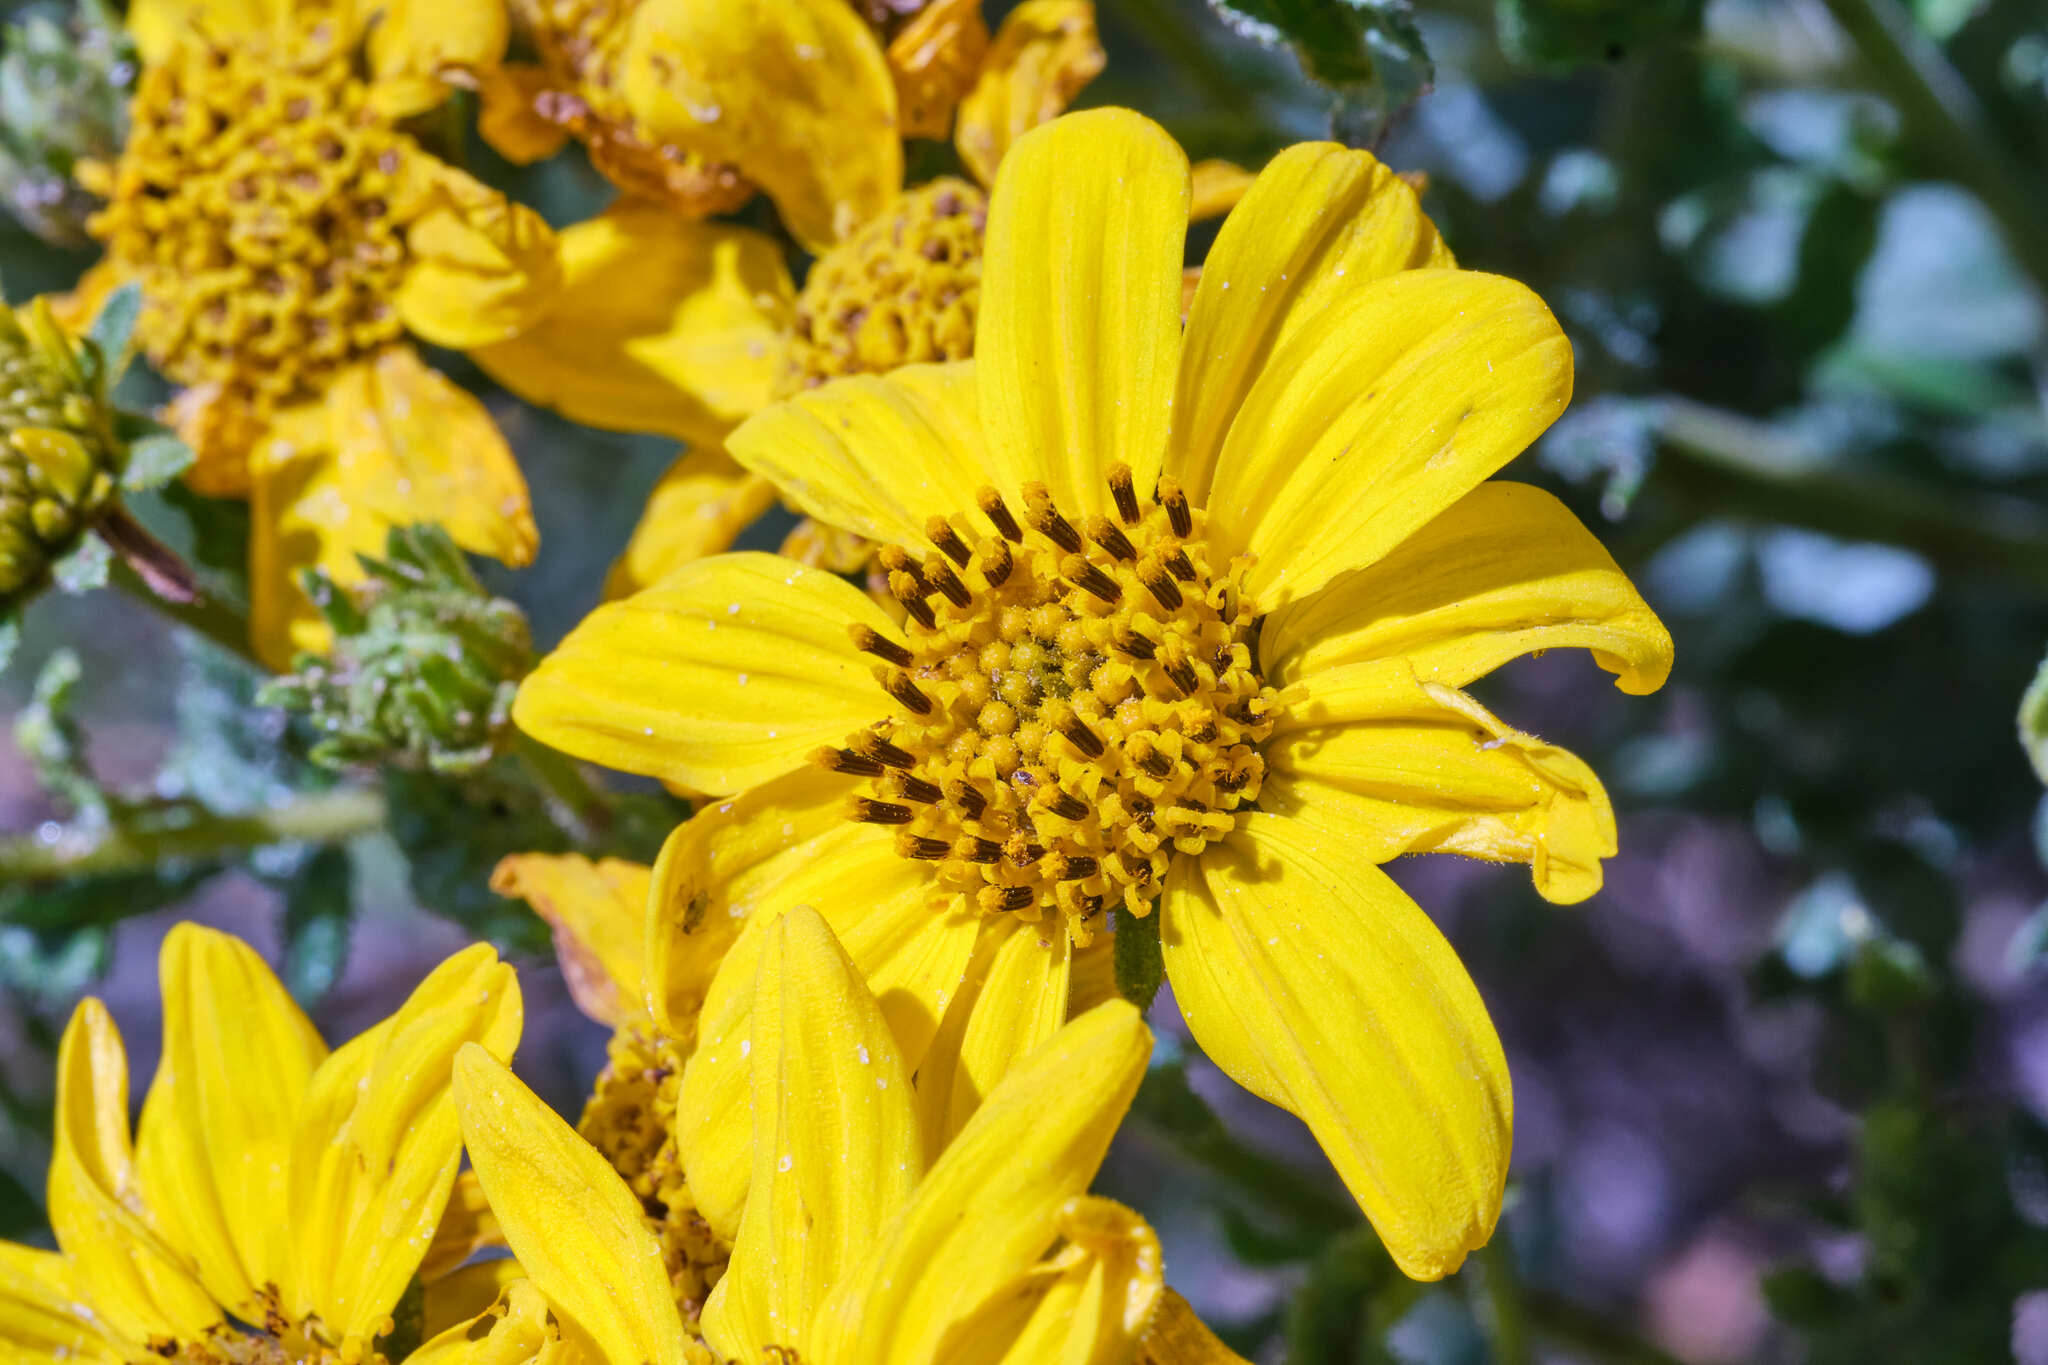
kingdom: Plantae
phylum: Tracheophyta
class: Magnoliopsida
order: Asterales
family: Asteraceae
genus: Bahiopsis
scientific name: Bahiopsis laciniata
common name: San diego county viguiera
